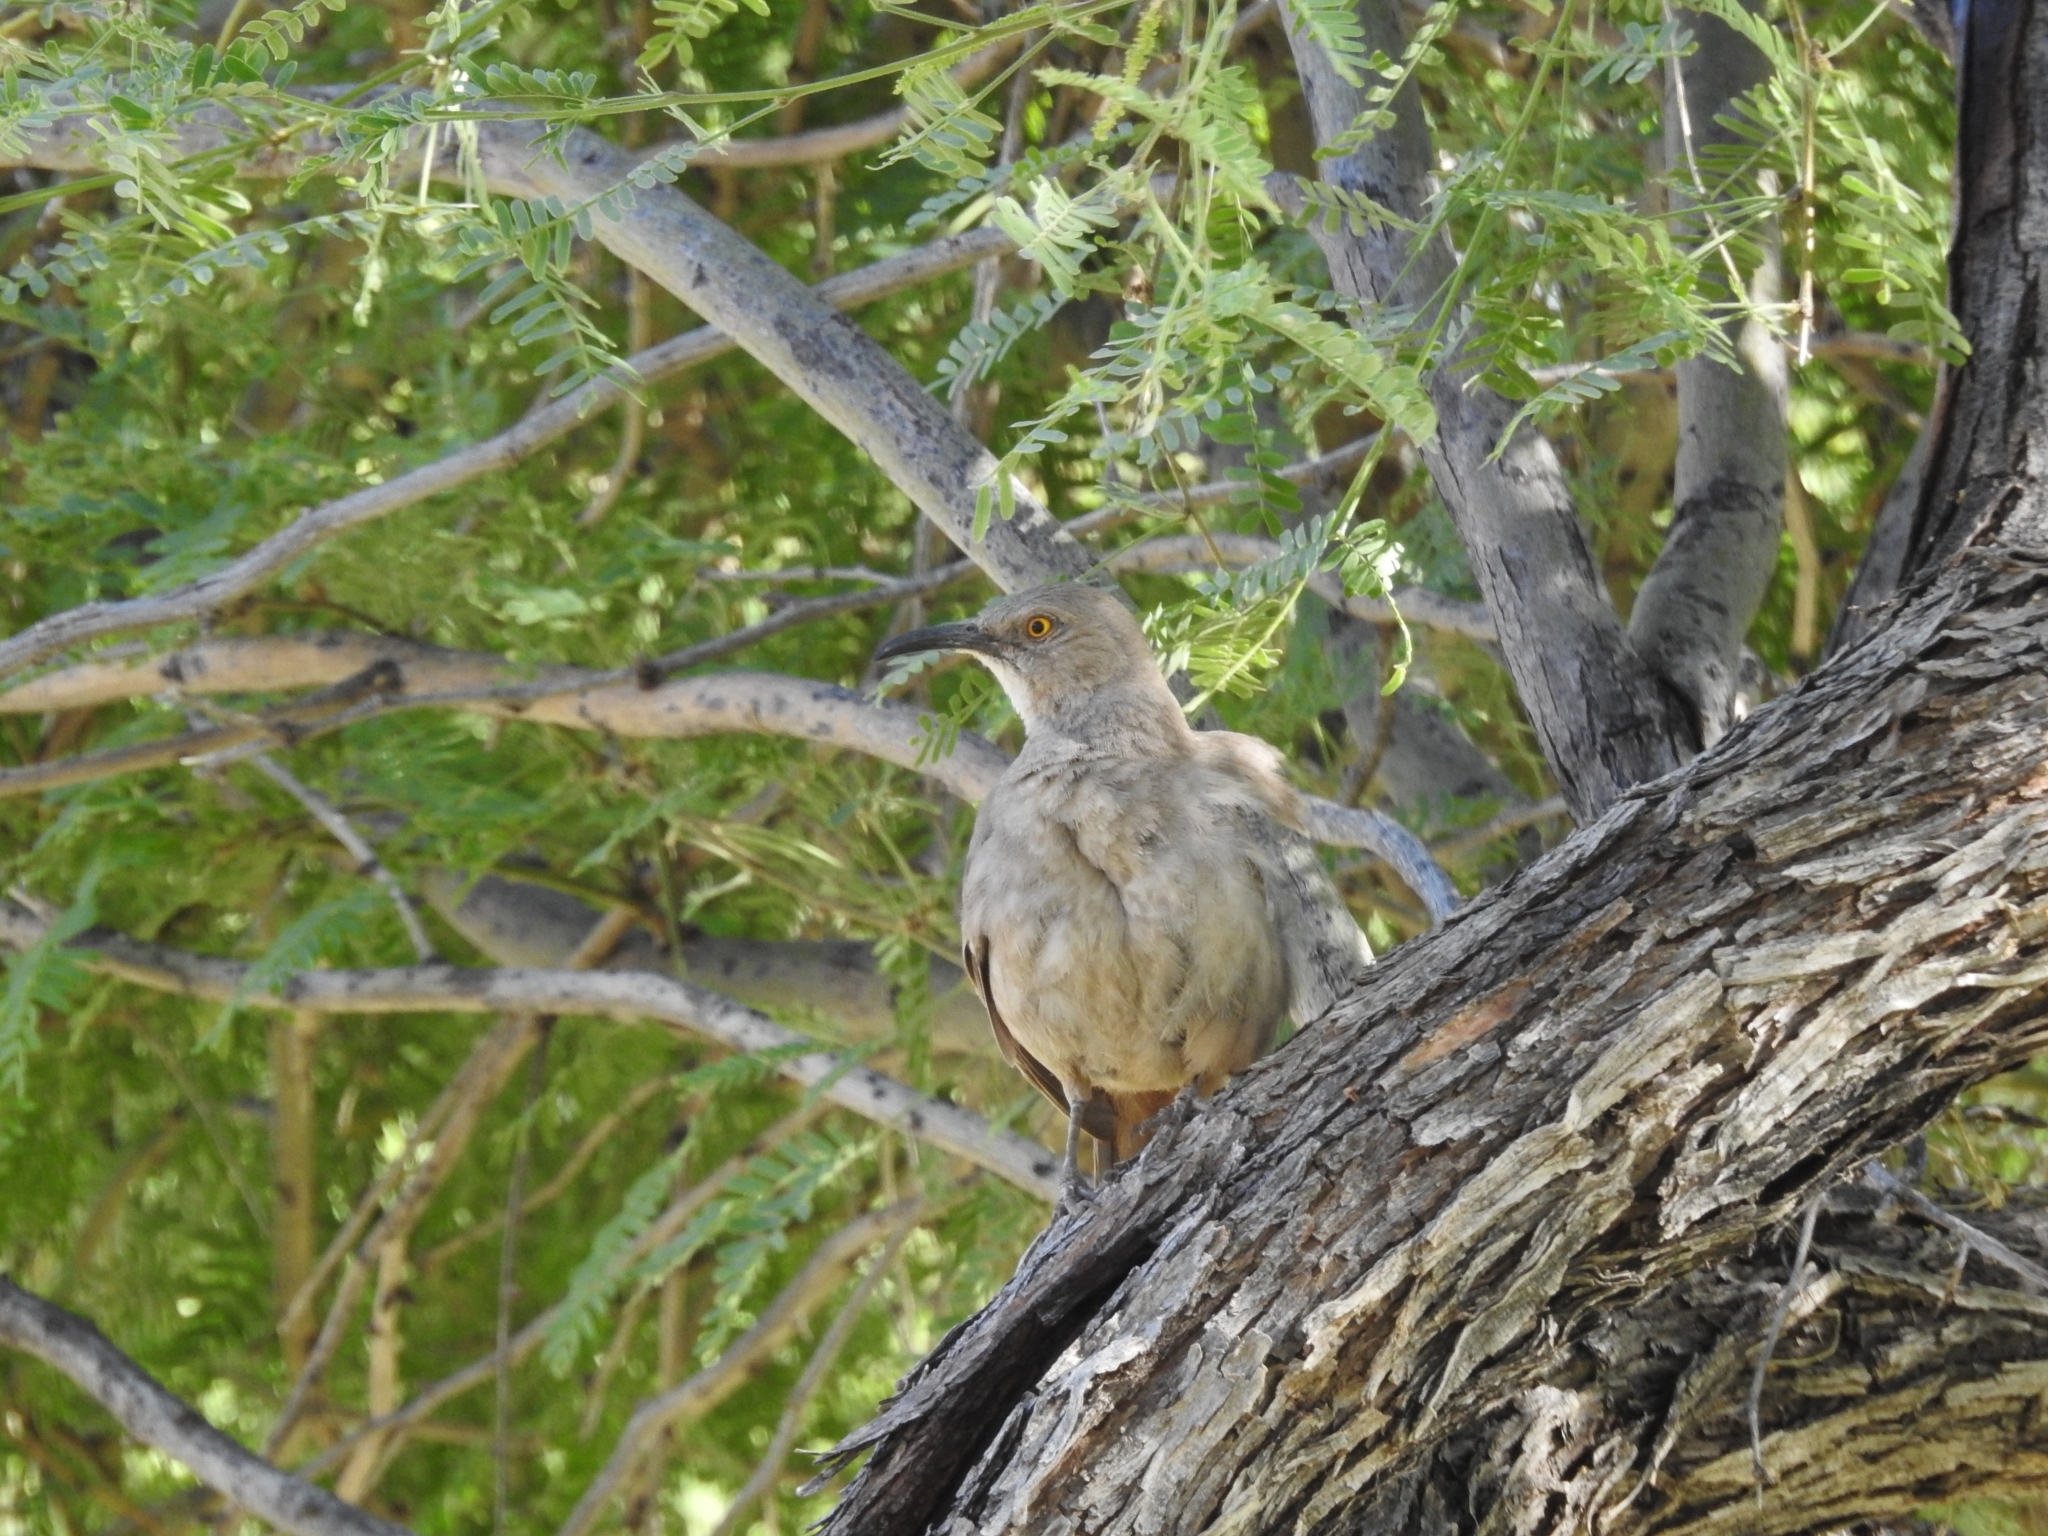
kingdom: Animalia
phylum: Chordata
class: Aves
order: Passeriformes
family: Mimidae
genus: Toxostoma
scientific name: Toxostoma curvirostre
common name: Curve-billed thrasher
